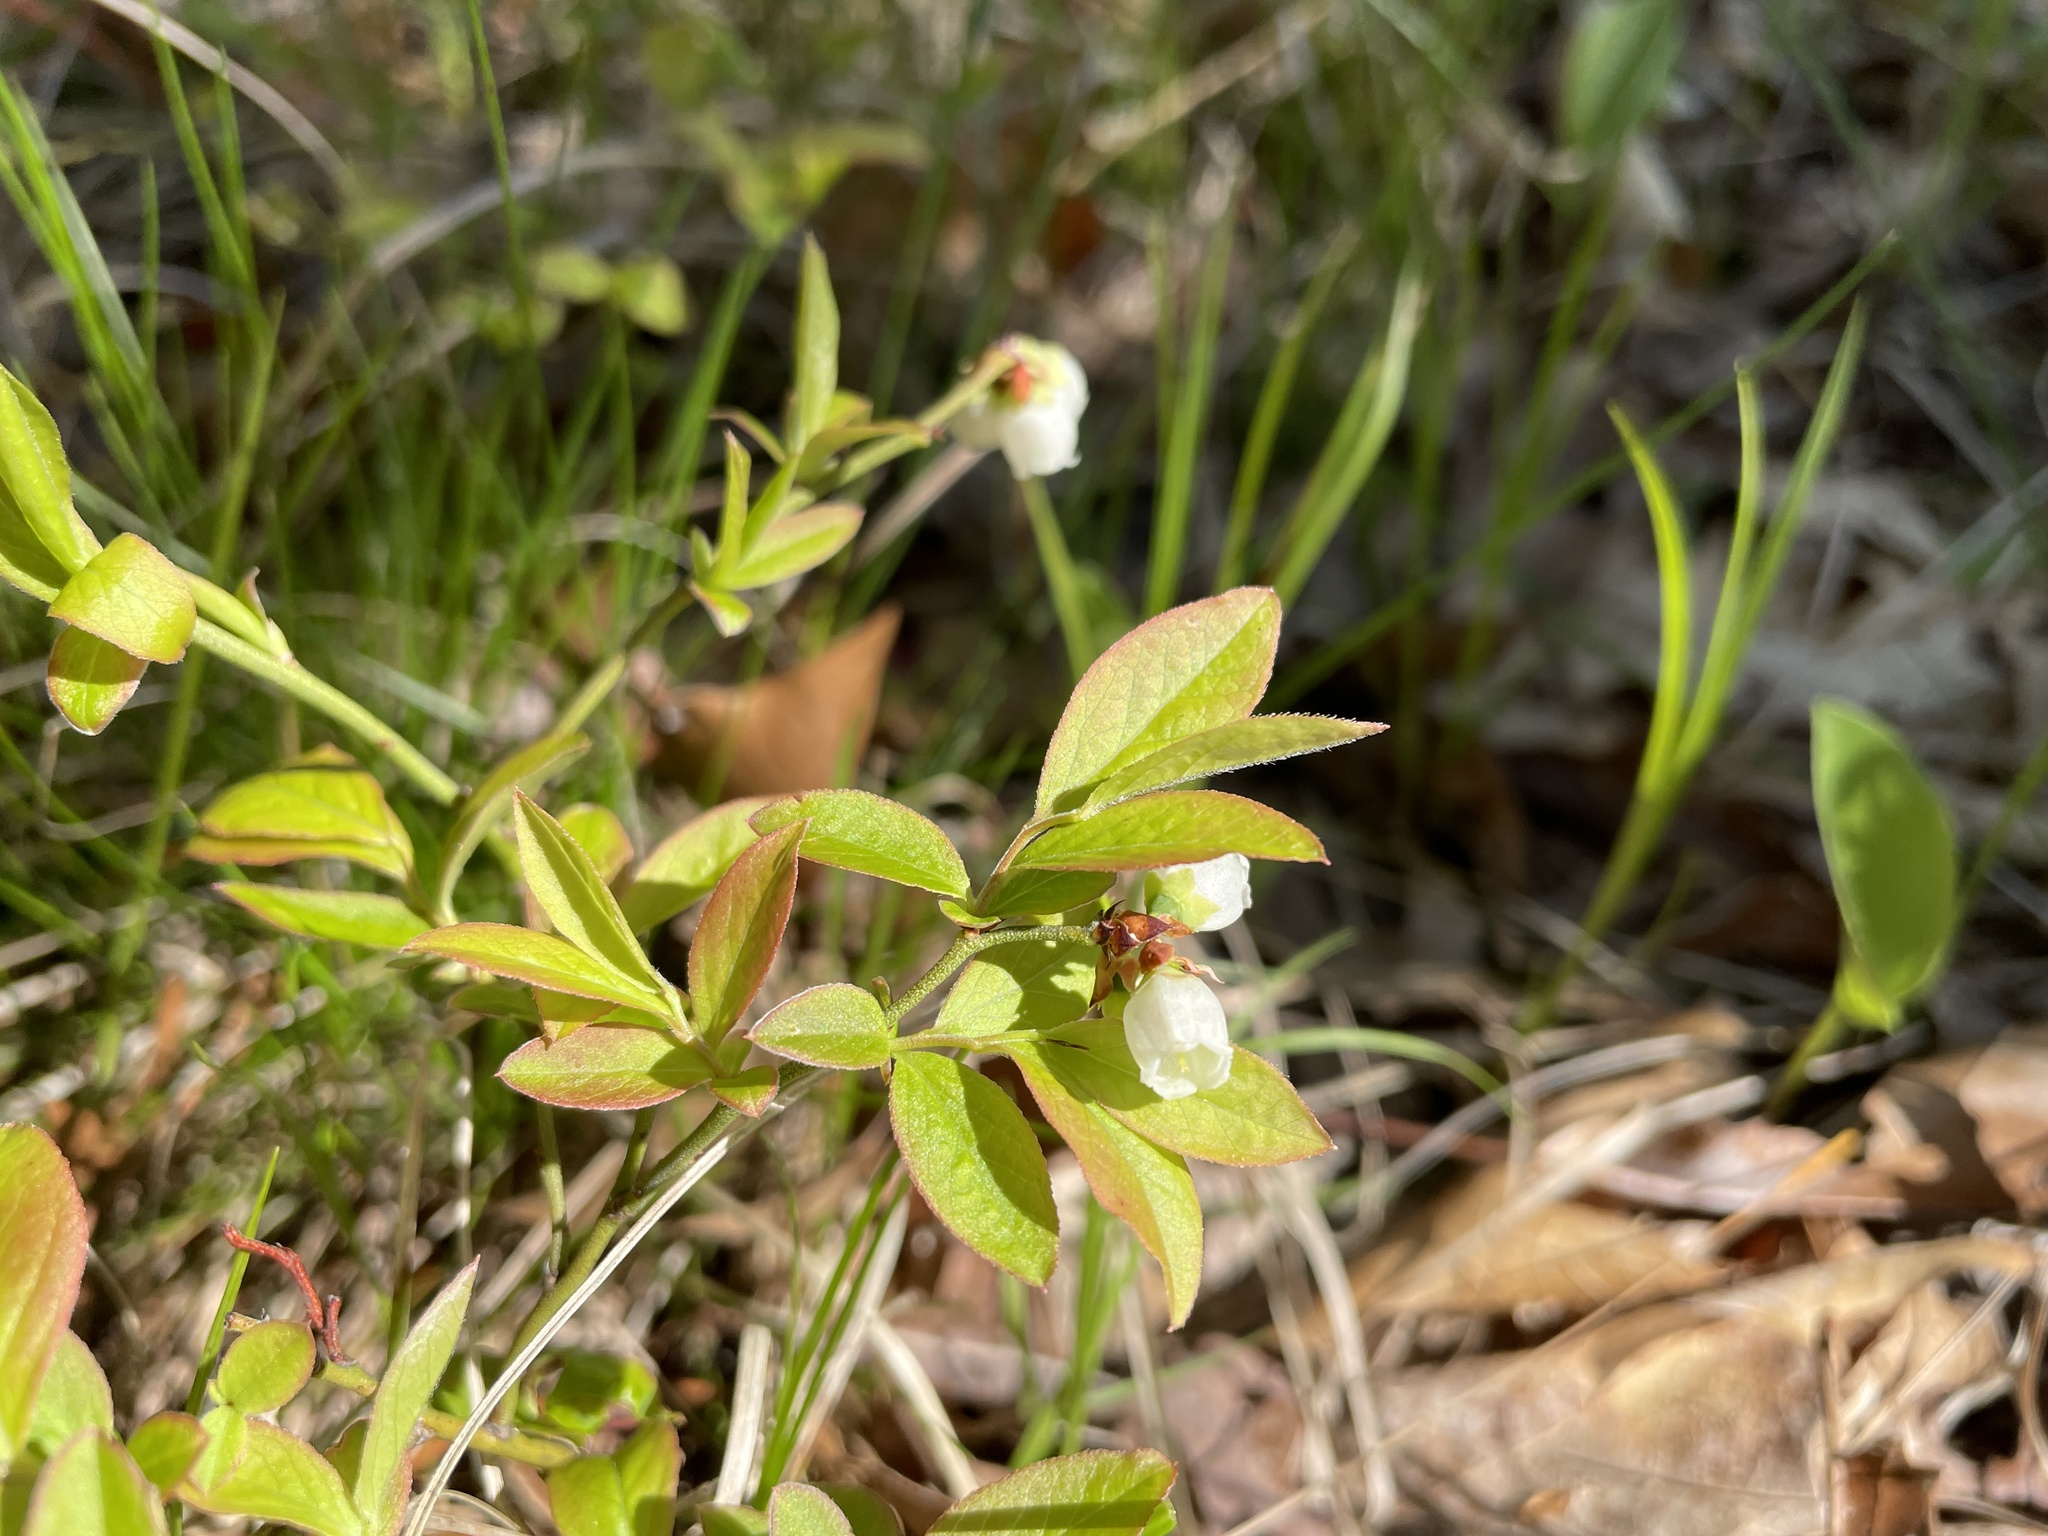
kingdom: Plantae
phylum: Tracheophyta
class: Magnoliopsida
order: Ericales
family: Ericaceae
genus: Vaccinium
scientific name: Vaccinium angustifolium
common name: Early lowbush blueberry
